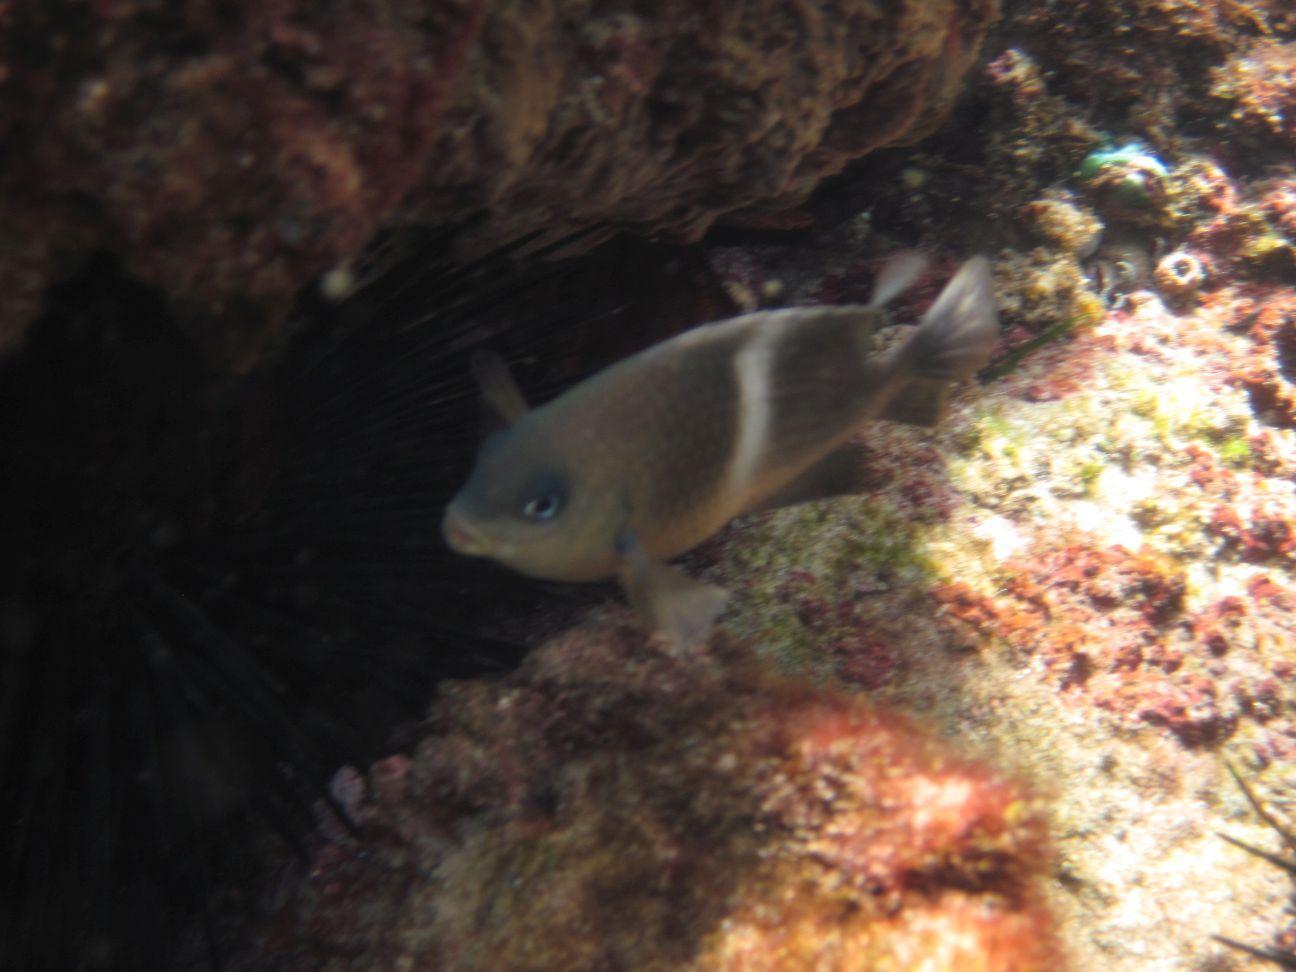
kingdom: Animalia
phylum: Chordata
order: Perciformes
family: Pomacentridae
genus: Plectroglyphidodon
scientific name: Plectroglyphidodon leucozonus
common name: White-band damsel
